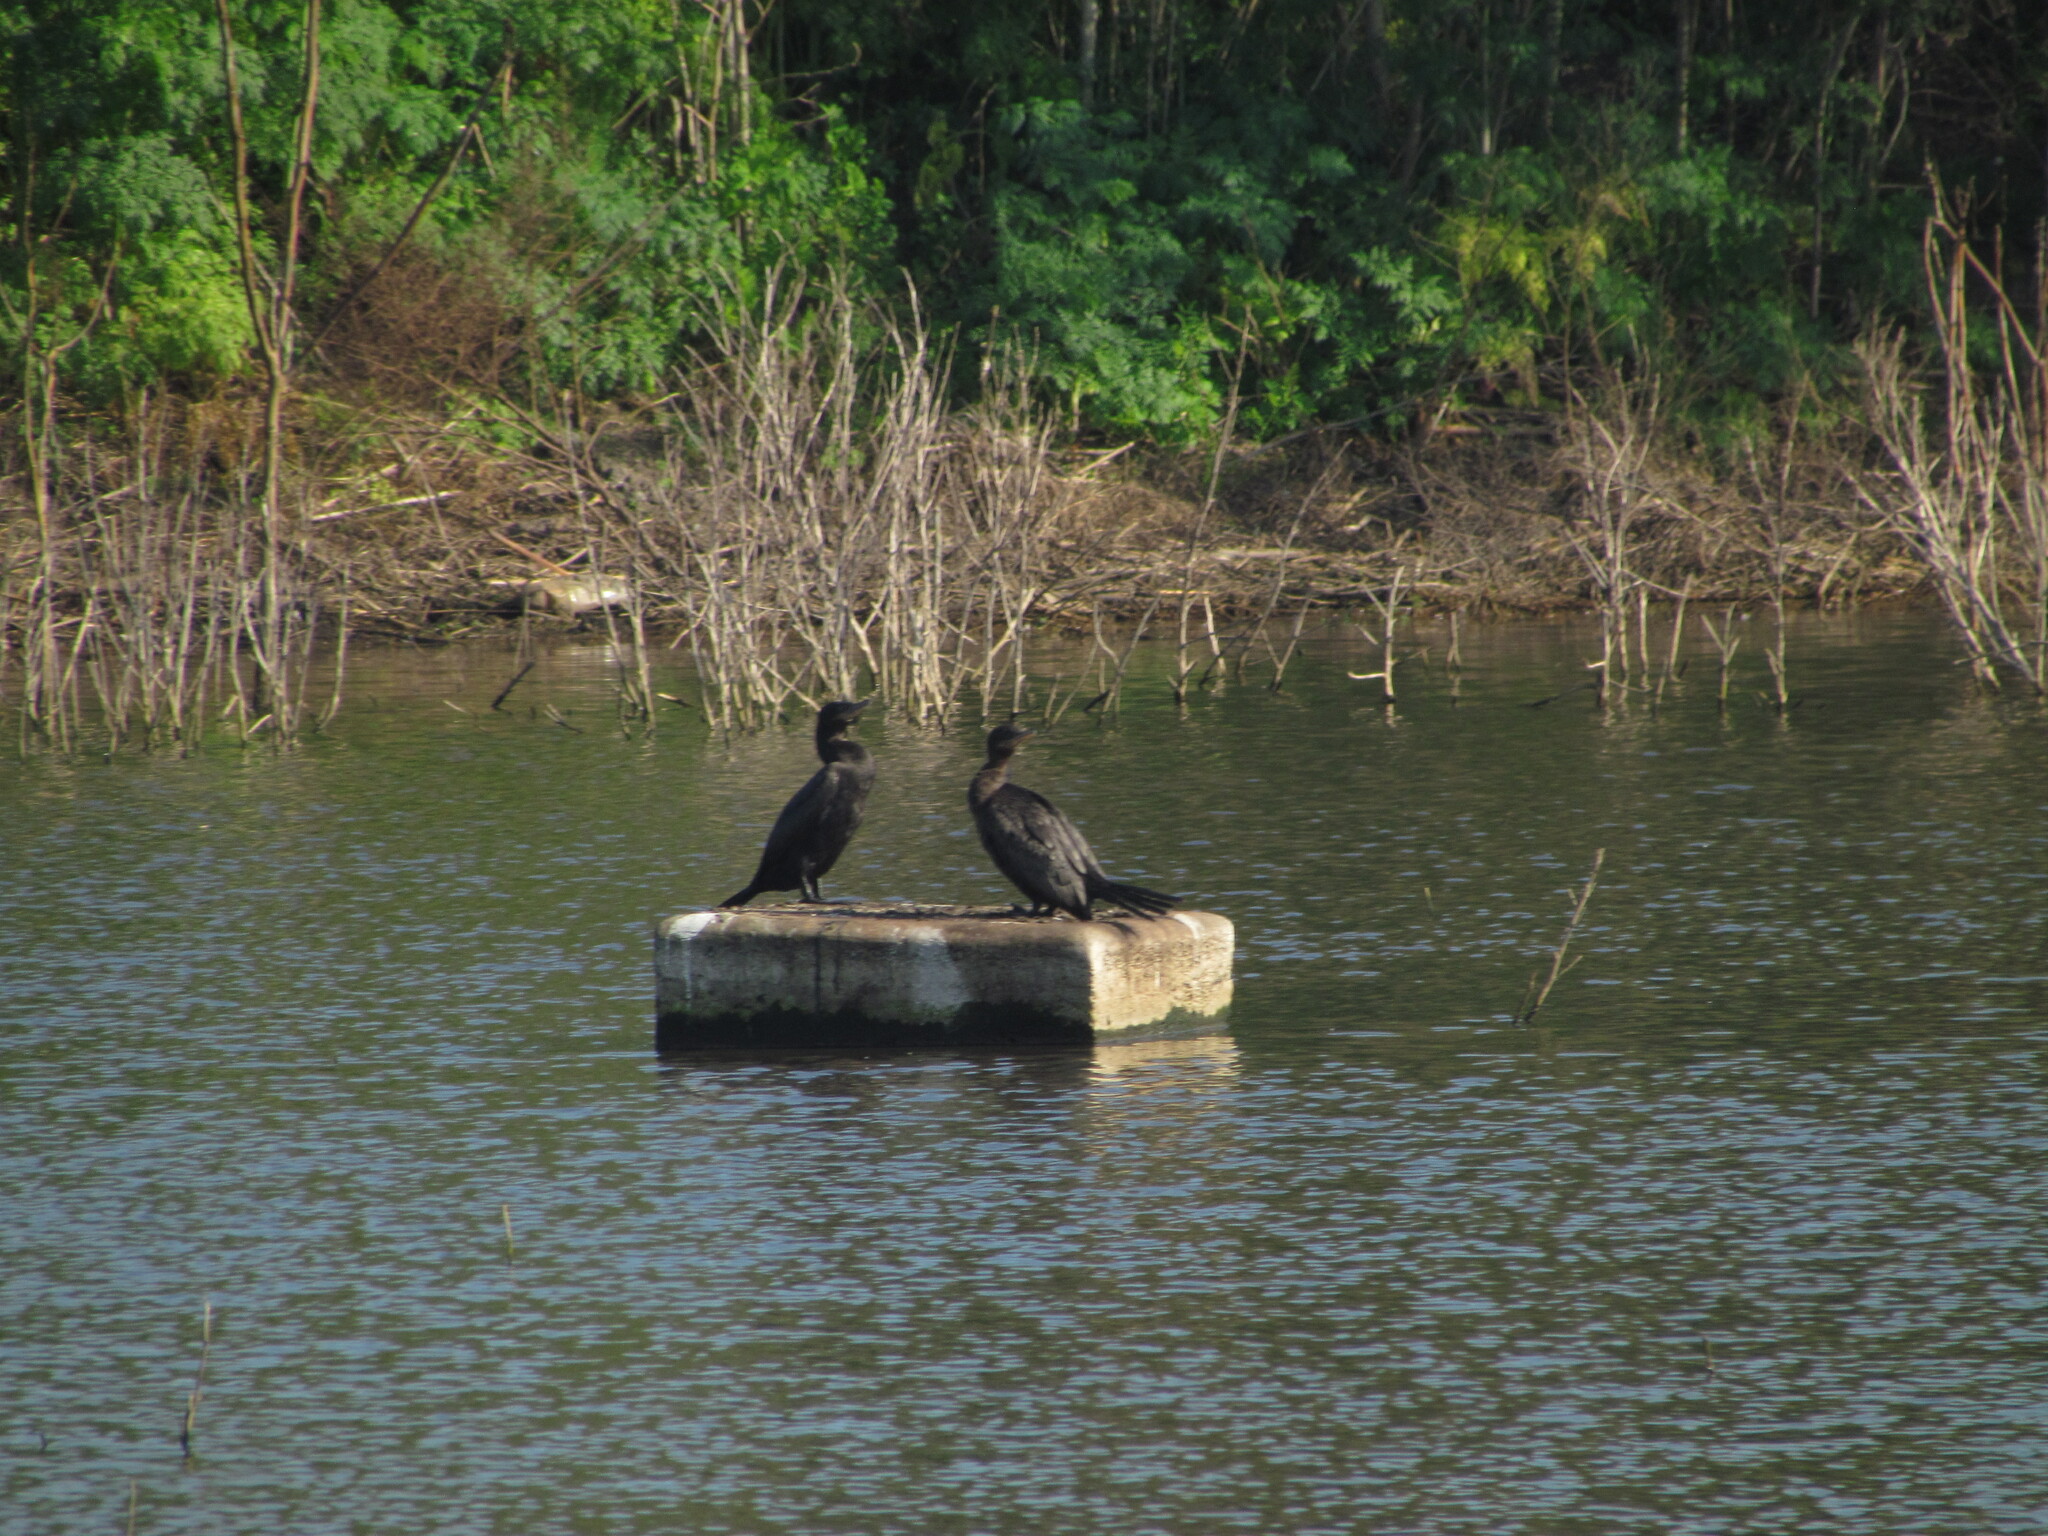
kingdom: Animalia
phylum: Chordata
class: Aves
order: Suliformes
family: Phalacrocoracidae
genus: Phalacrocorax
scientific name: Phalacrocorax brasilianus
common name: Neotropic cormorant
